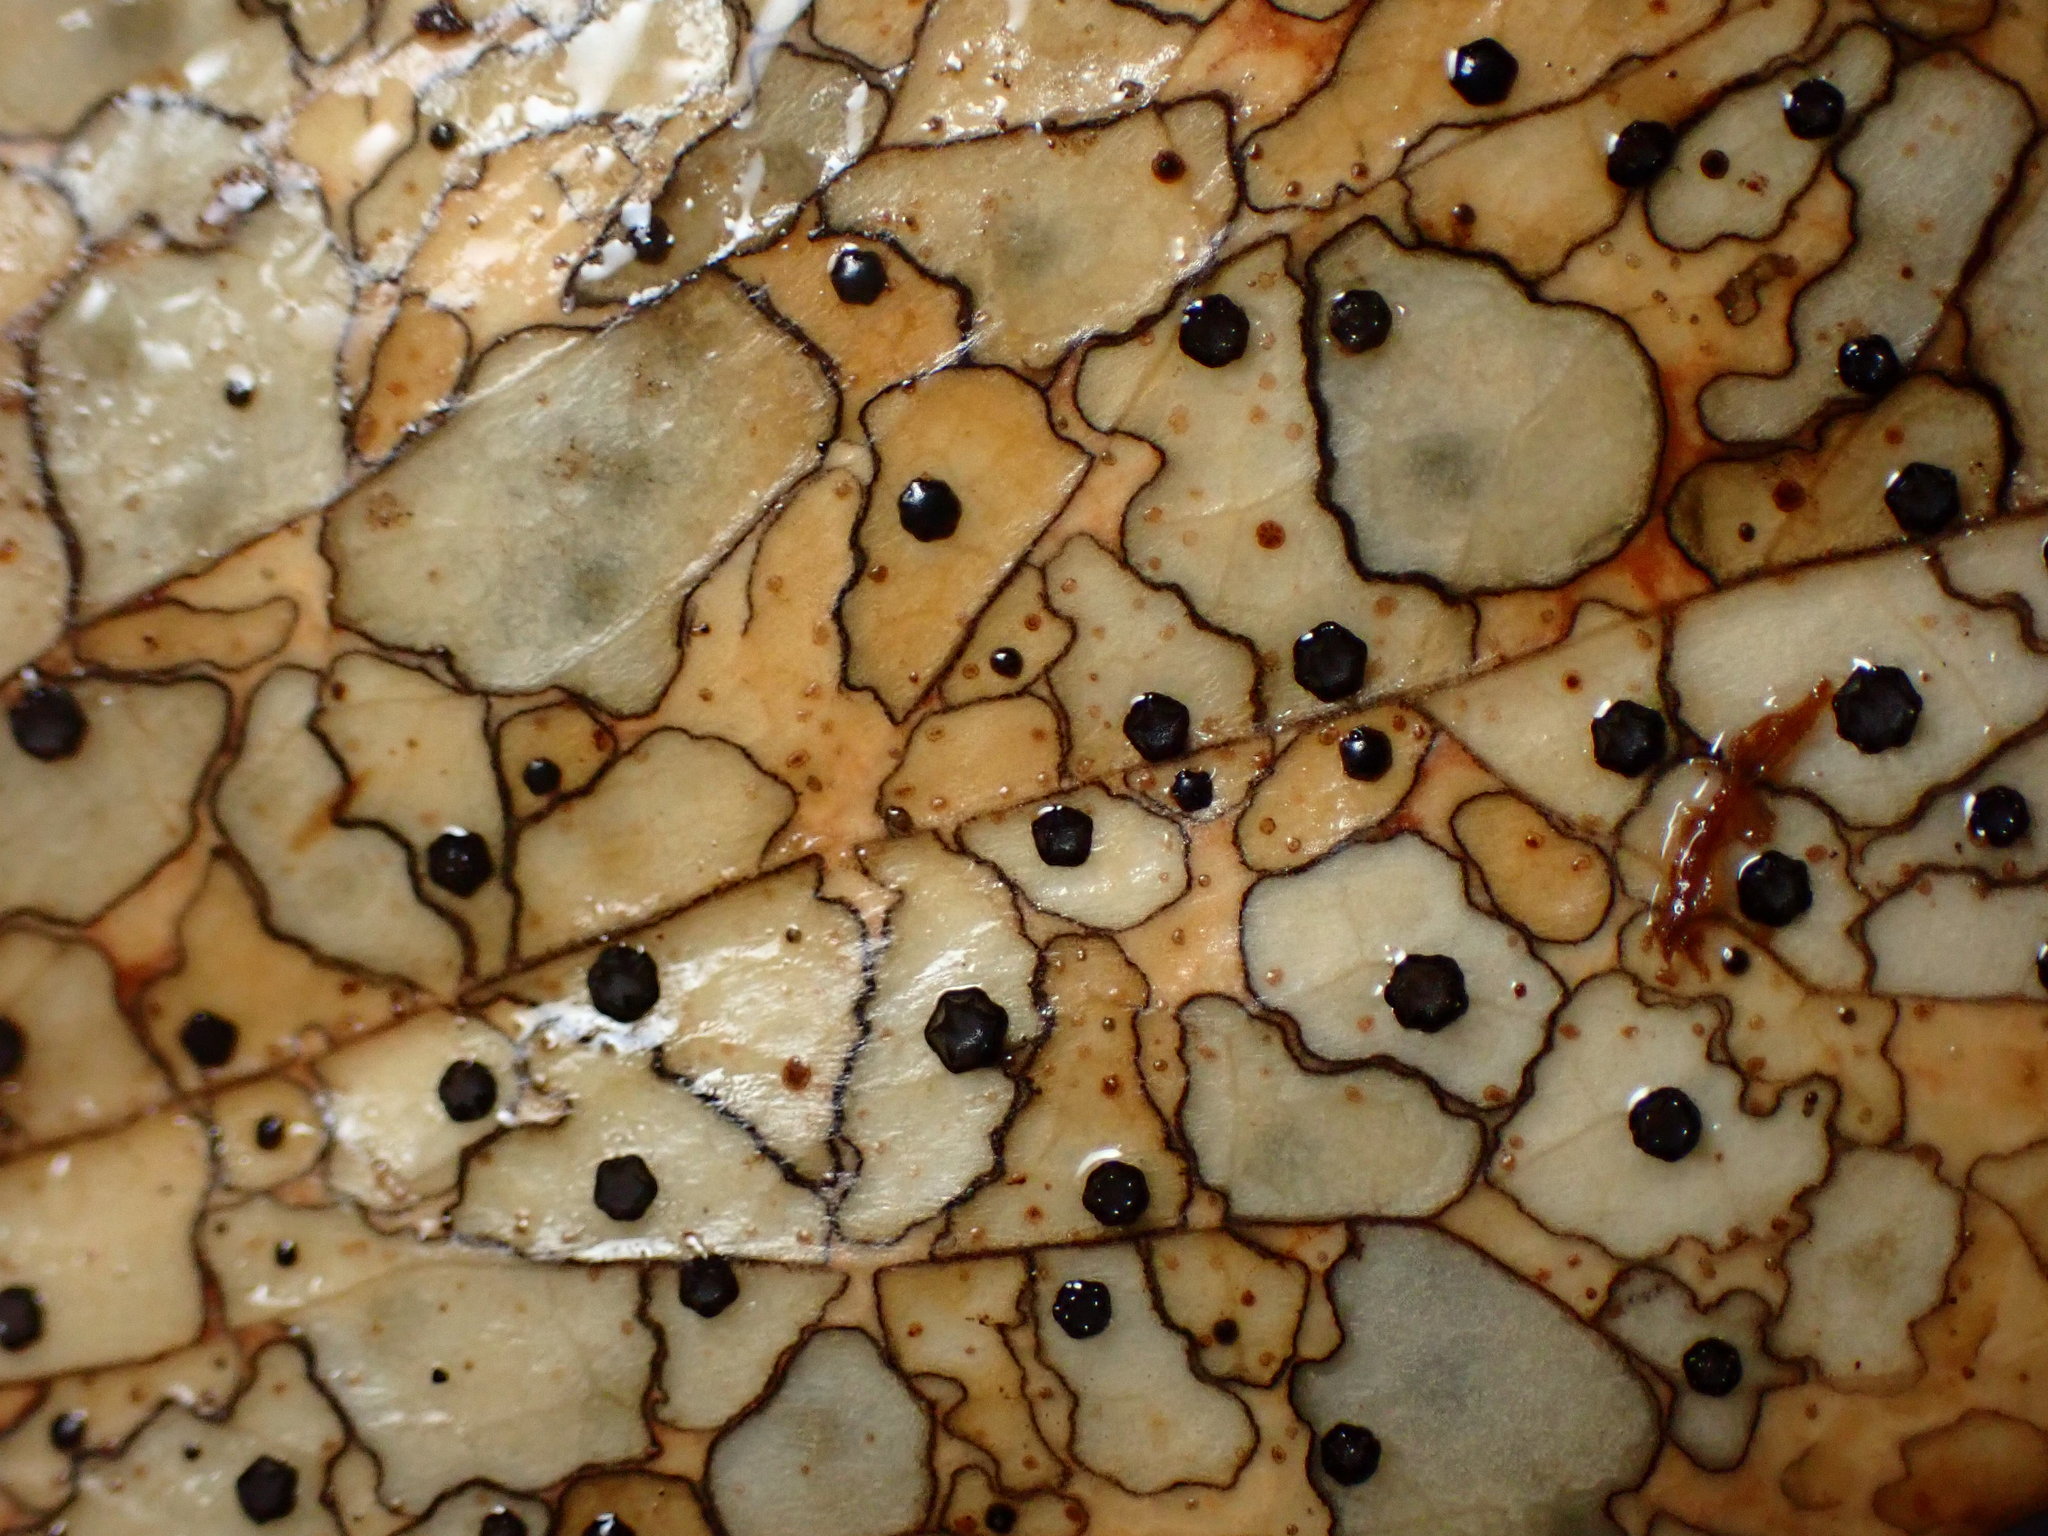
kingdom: Fungi
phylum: Ascomycota
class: Leotiomycetes
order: Rhytismatales
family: Rhytismataceae
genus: Coccomyces
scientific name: Coccomyces dentatus
